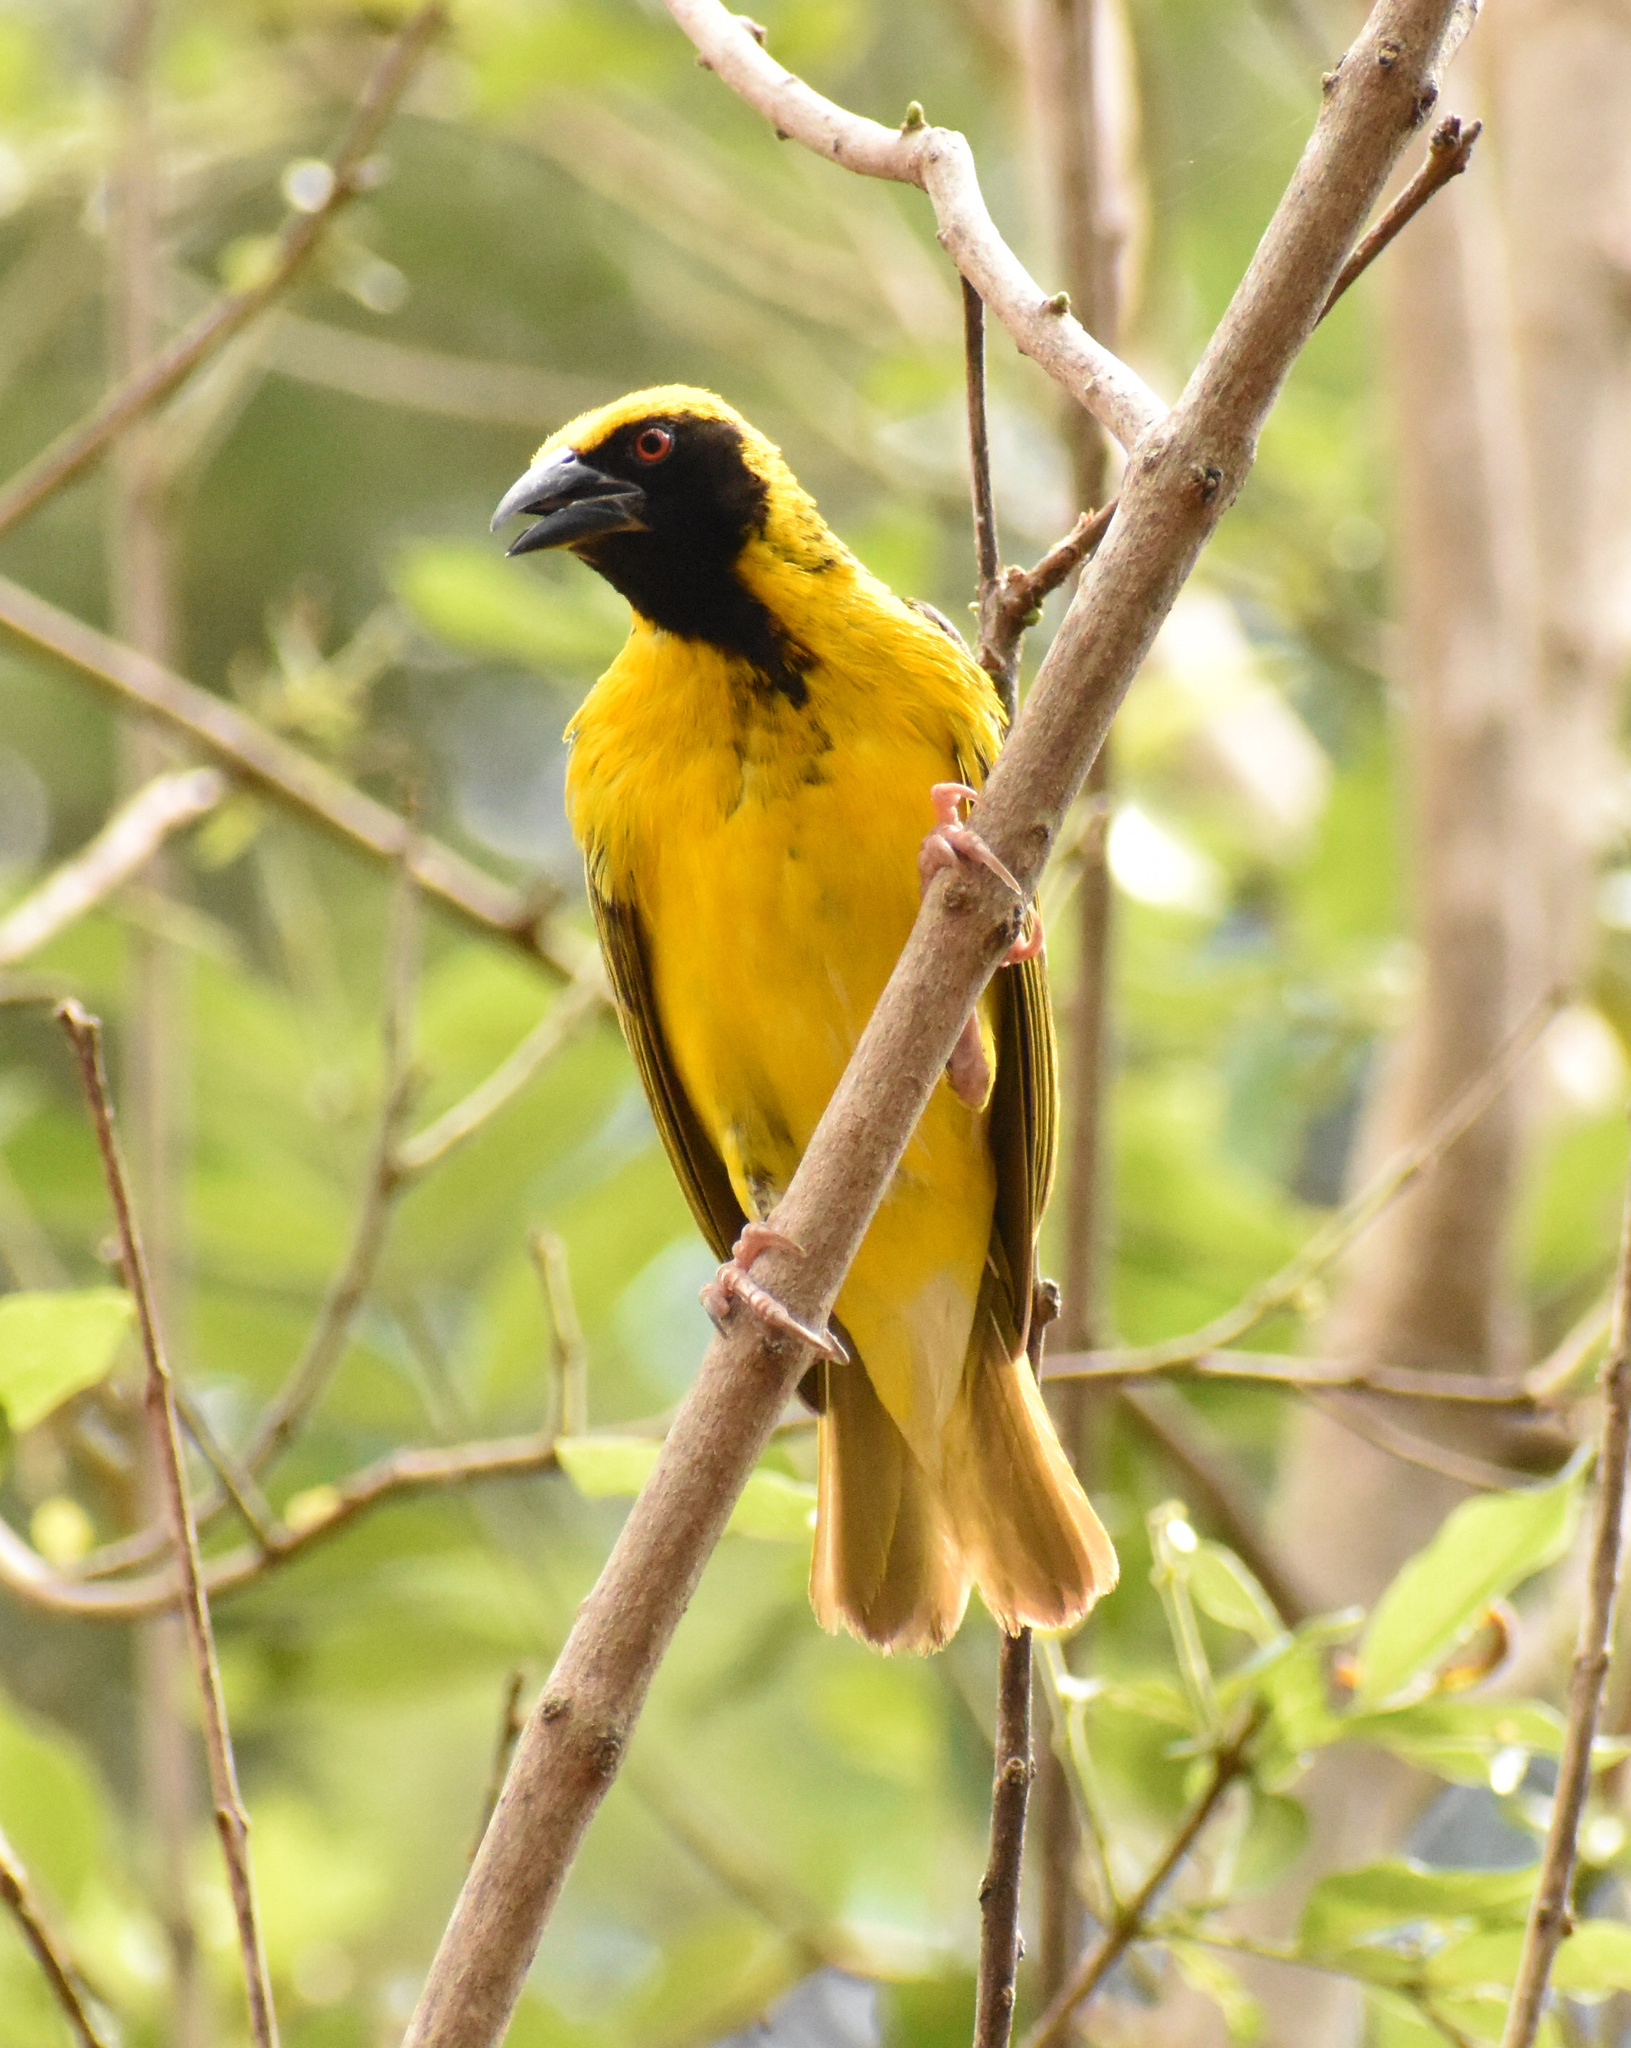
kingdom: Animalia
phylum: Chordata
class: Aves
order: Passeriformes
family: Ploceidae
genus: Ploceus
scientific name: Ploceus cucullatus
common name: Village weaver
